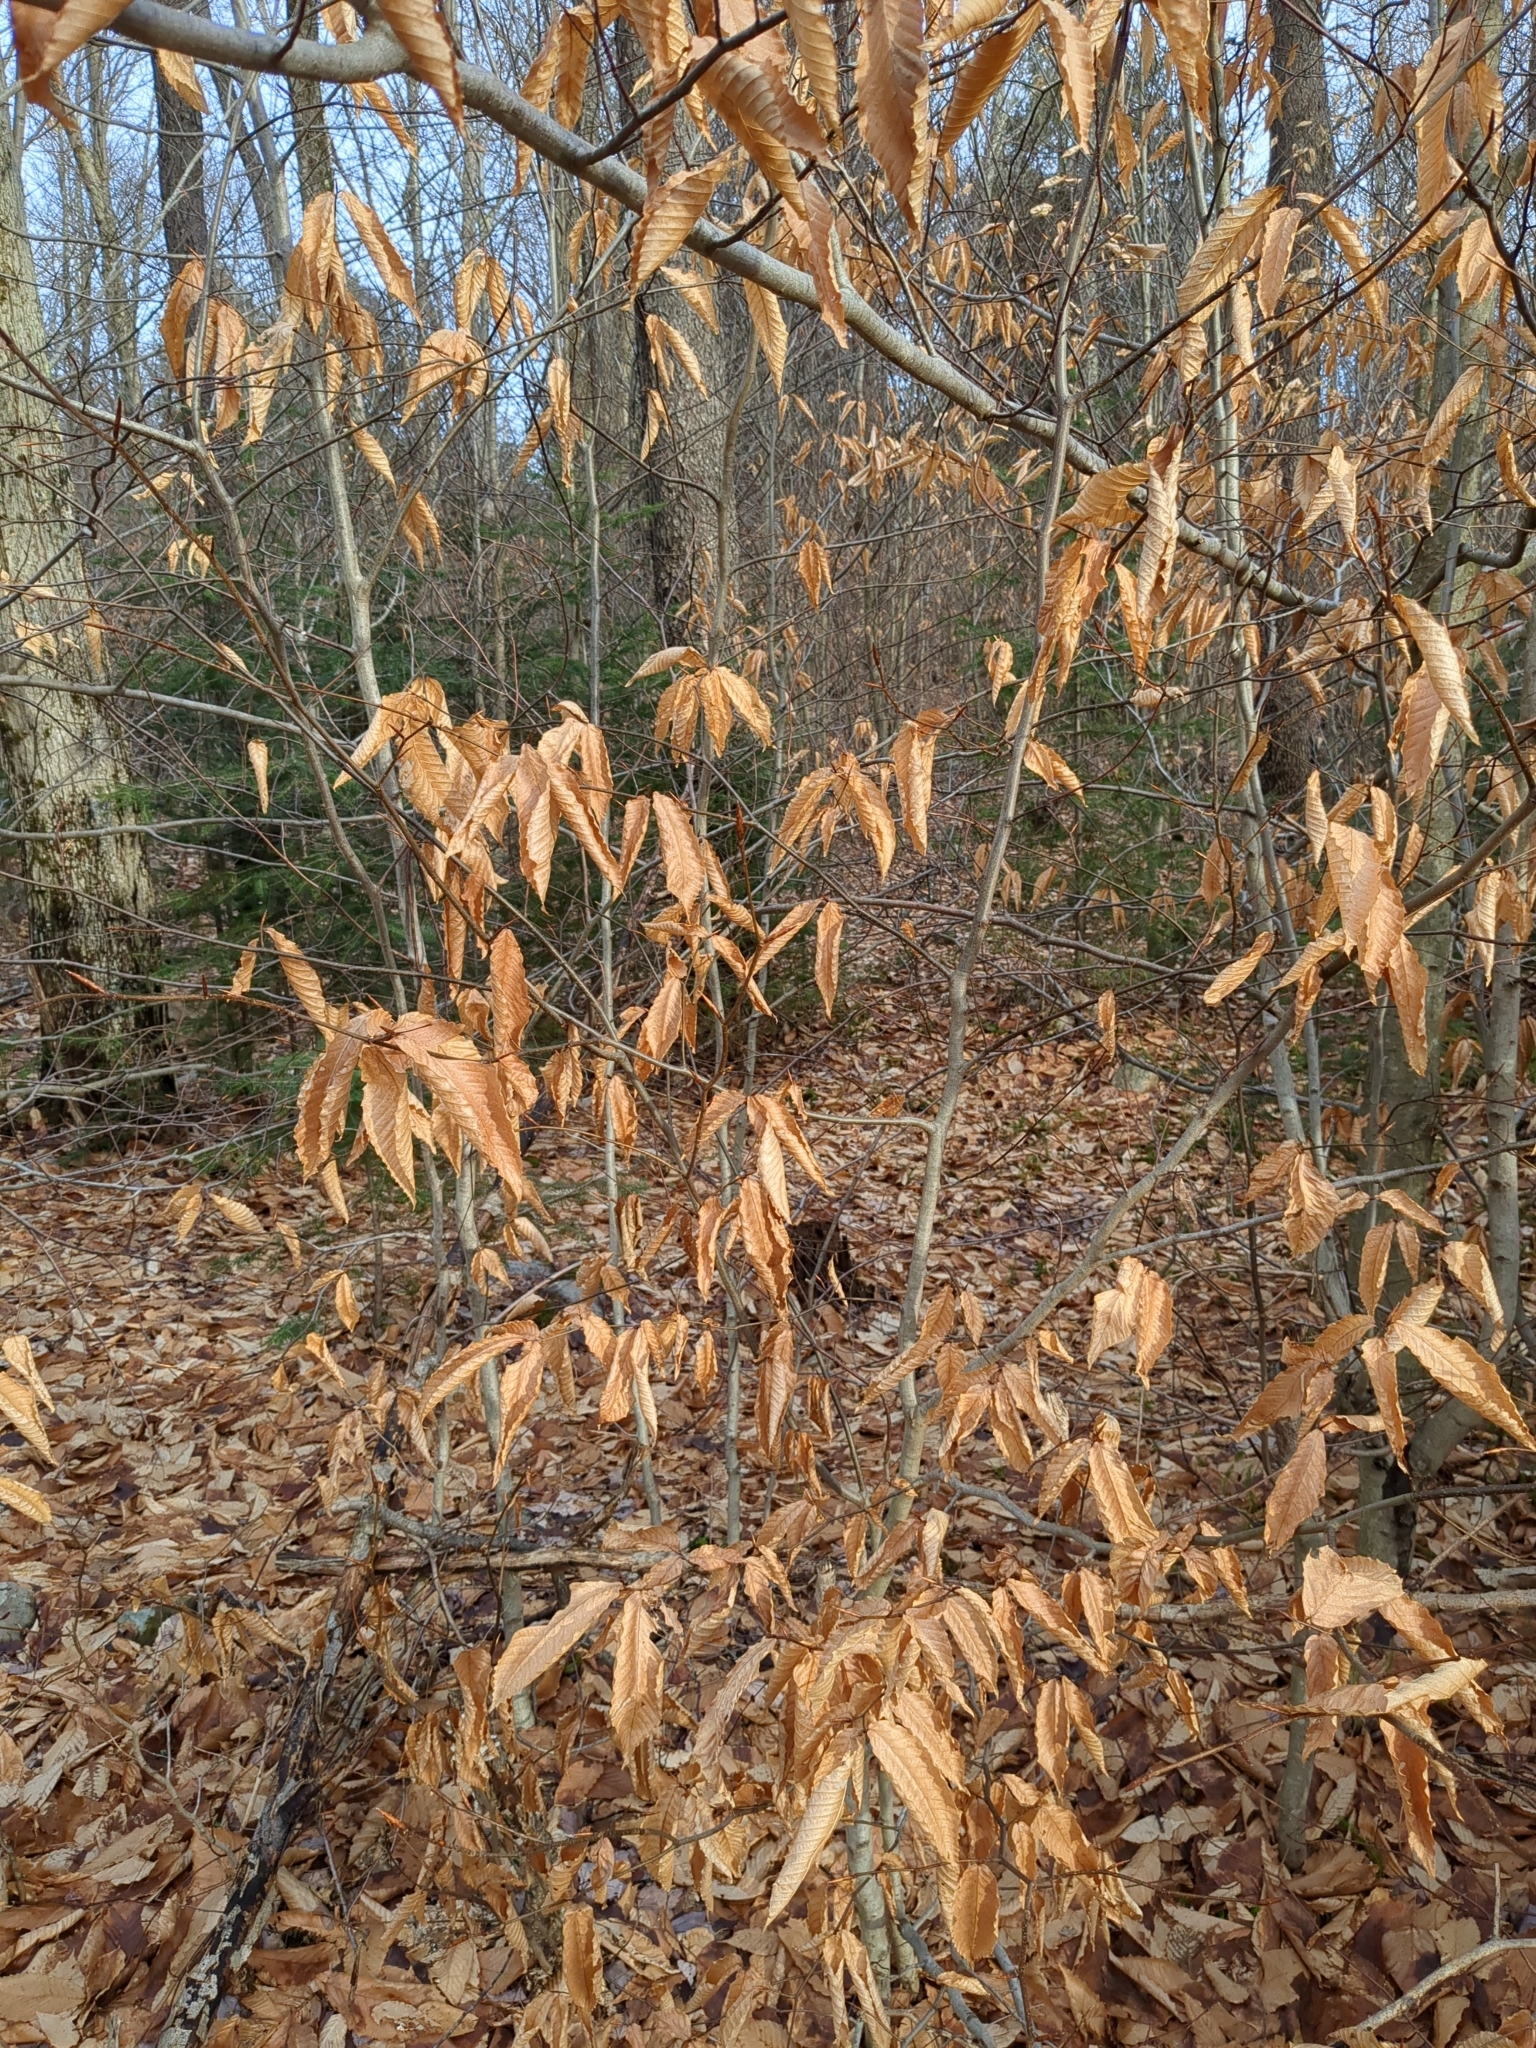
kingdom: Plantae
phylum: Tracheophyta
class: Magnoliopsida
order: Fagales
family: Fagaceae
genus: Fagus
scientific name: Fagus grandifolia
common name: American beech
